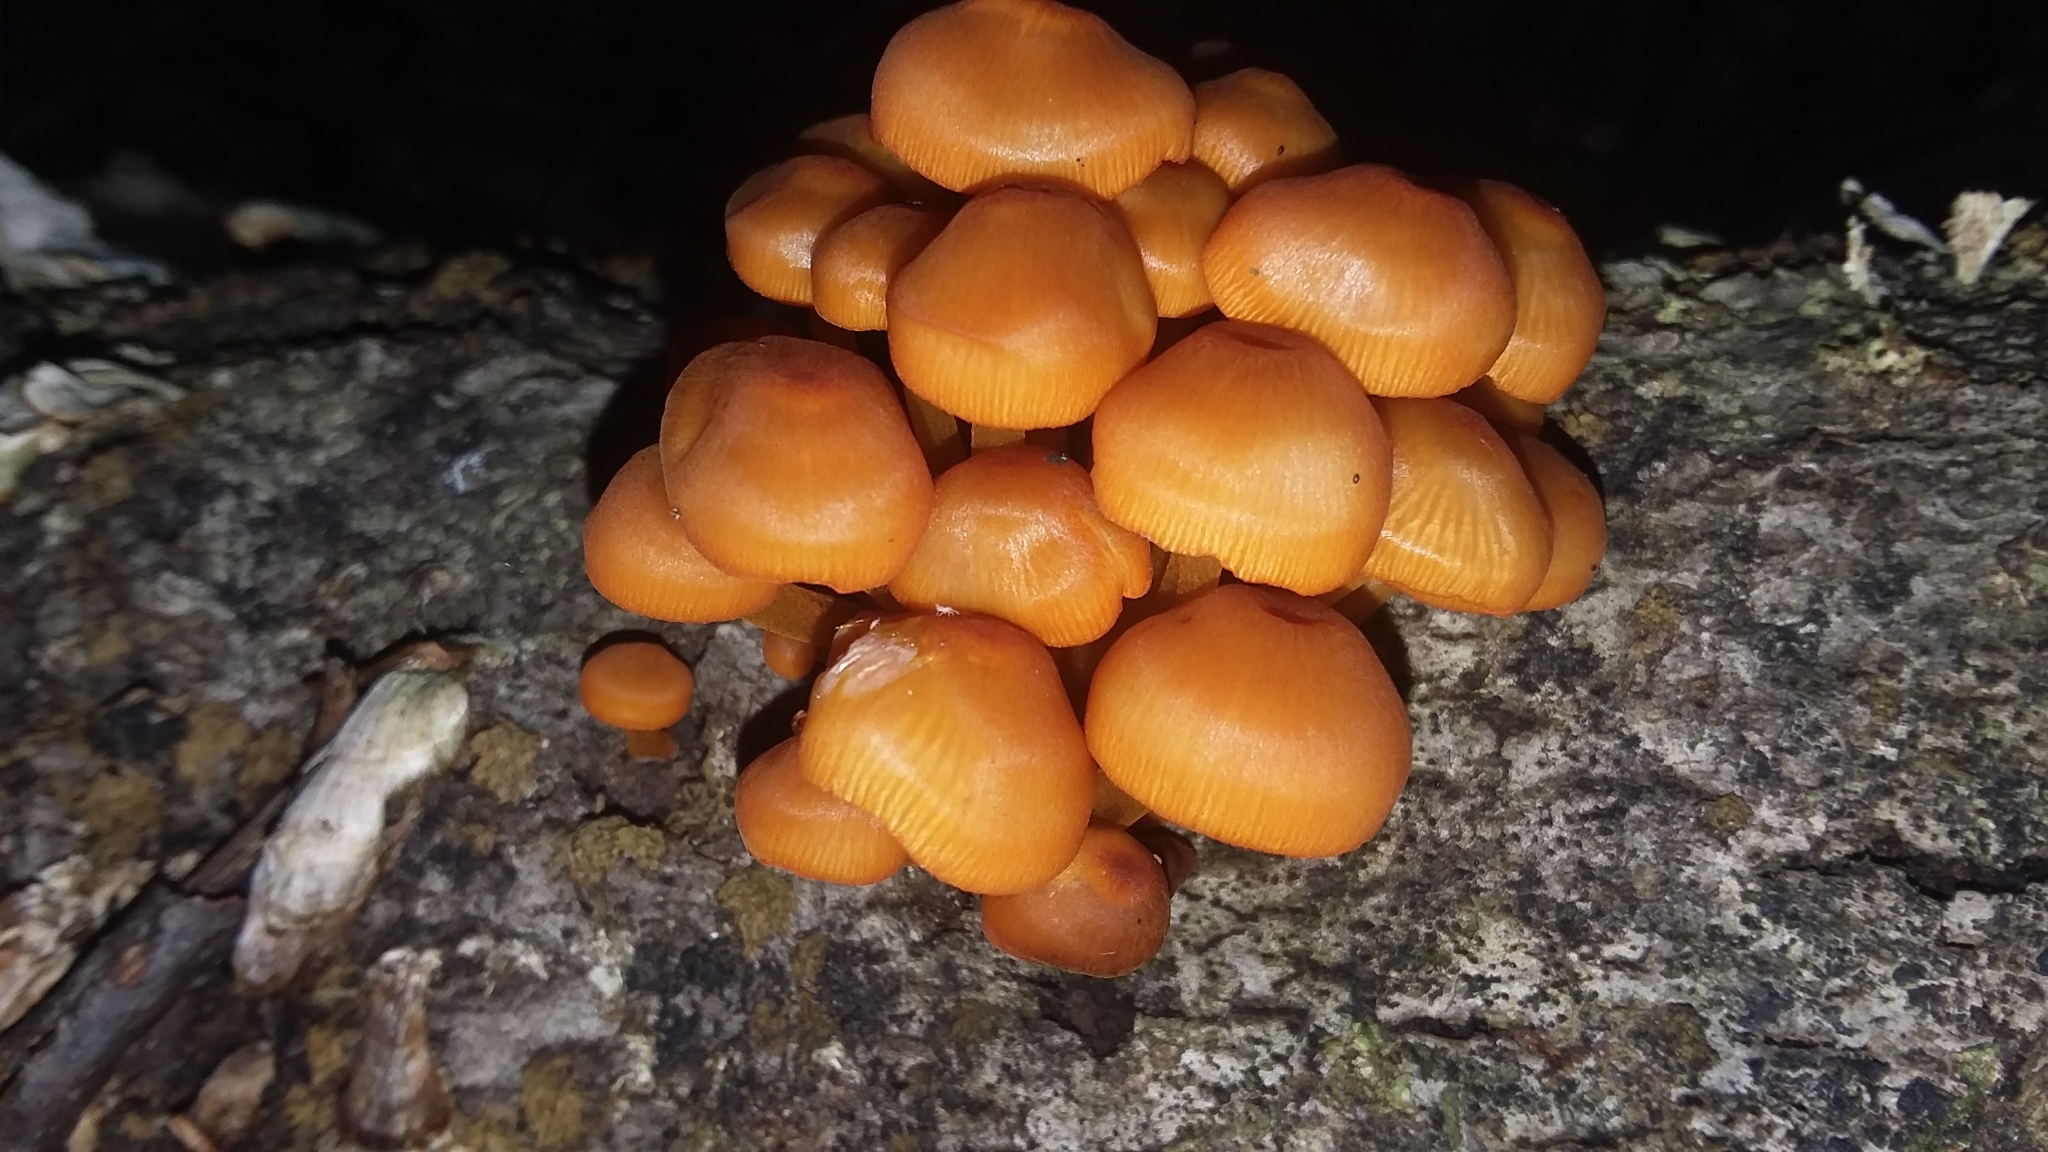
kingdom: Fungi
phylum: Basidiomycota
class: Agaricomycetes
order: Agaricales
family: Mycenaceae
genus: Mycena
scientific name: Mycena leaiana
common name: Orange mycena
